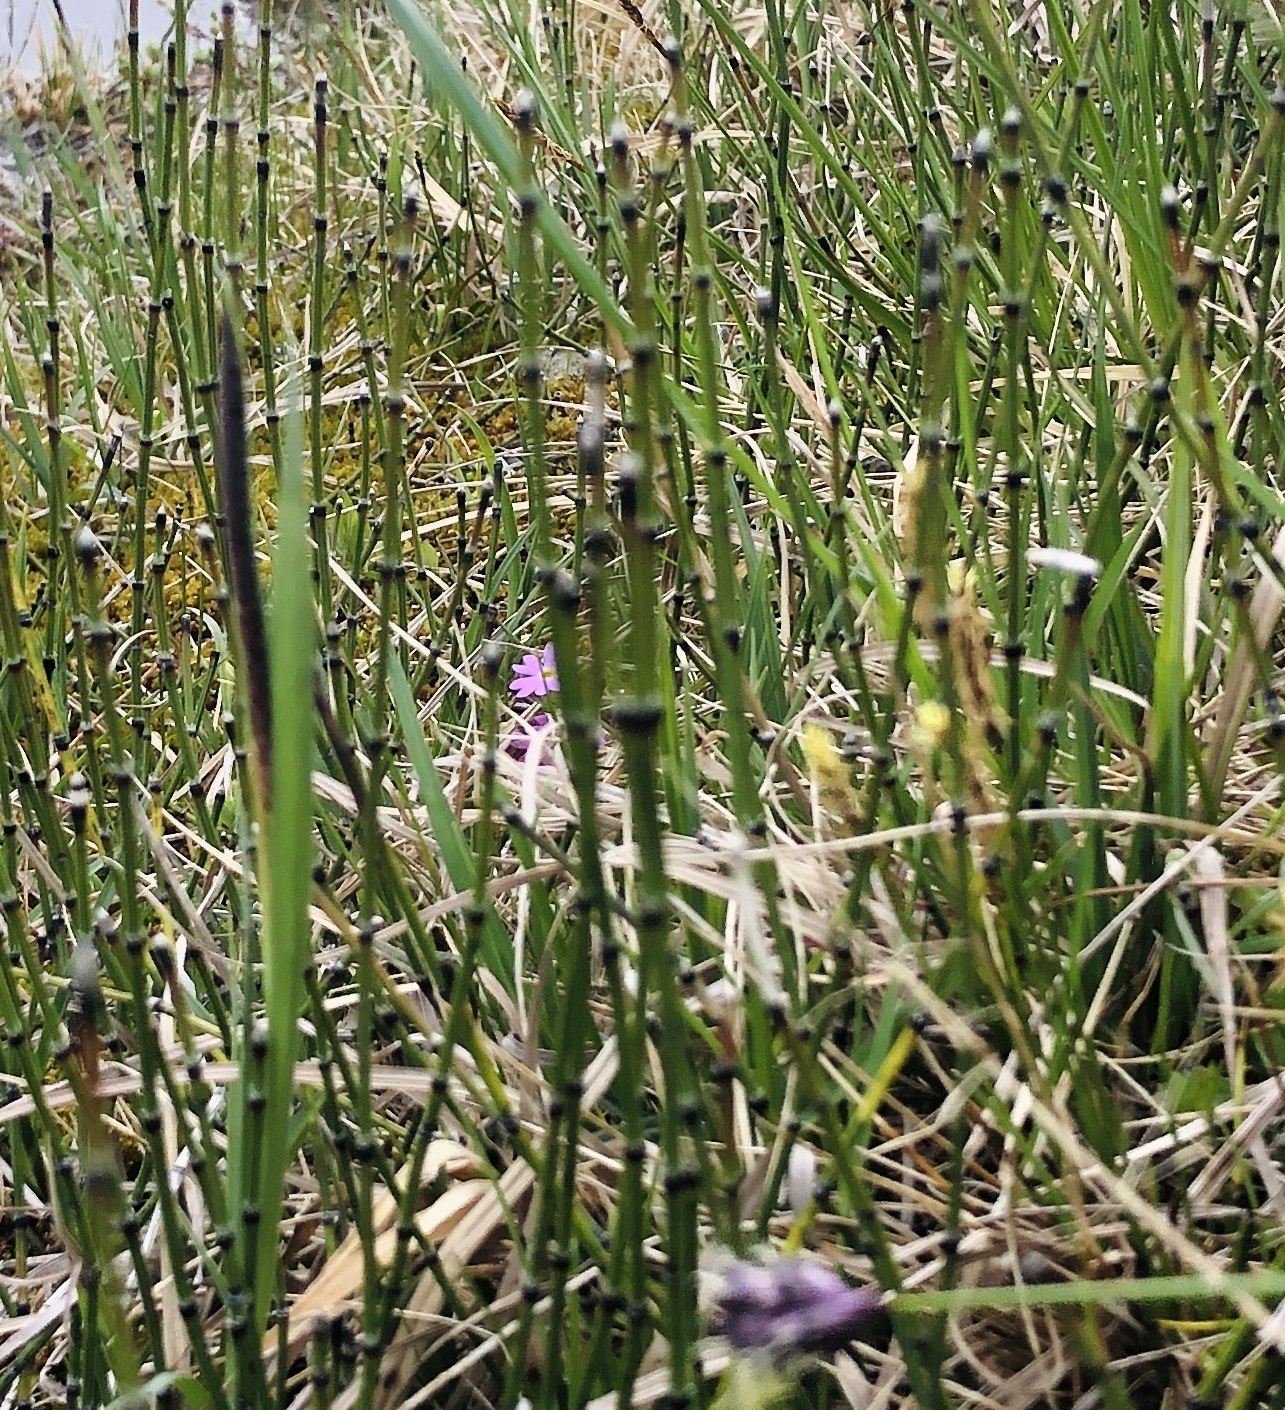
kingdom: Plantae
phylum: Tracheophyta
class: Polypodiopsida
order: Equisetales
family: Equisetaceae
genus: Equisetum
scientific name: Equisetum variegatum
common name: Variegated horsetail
